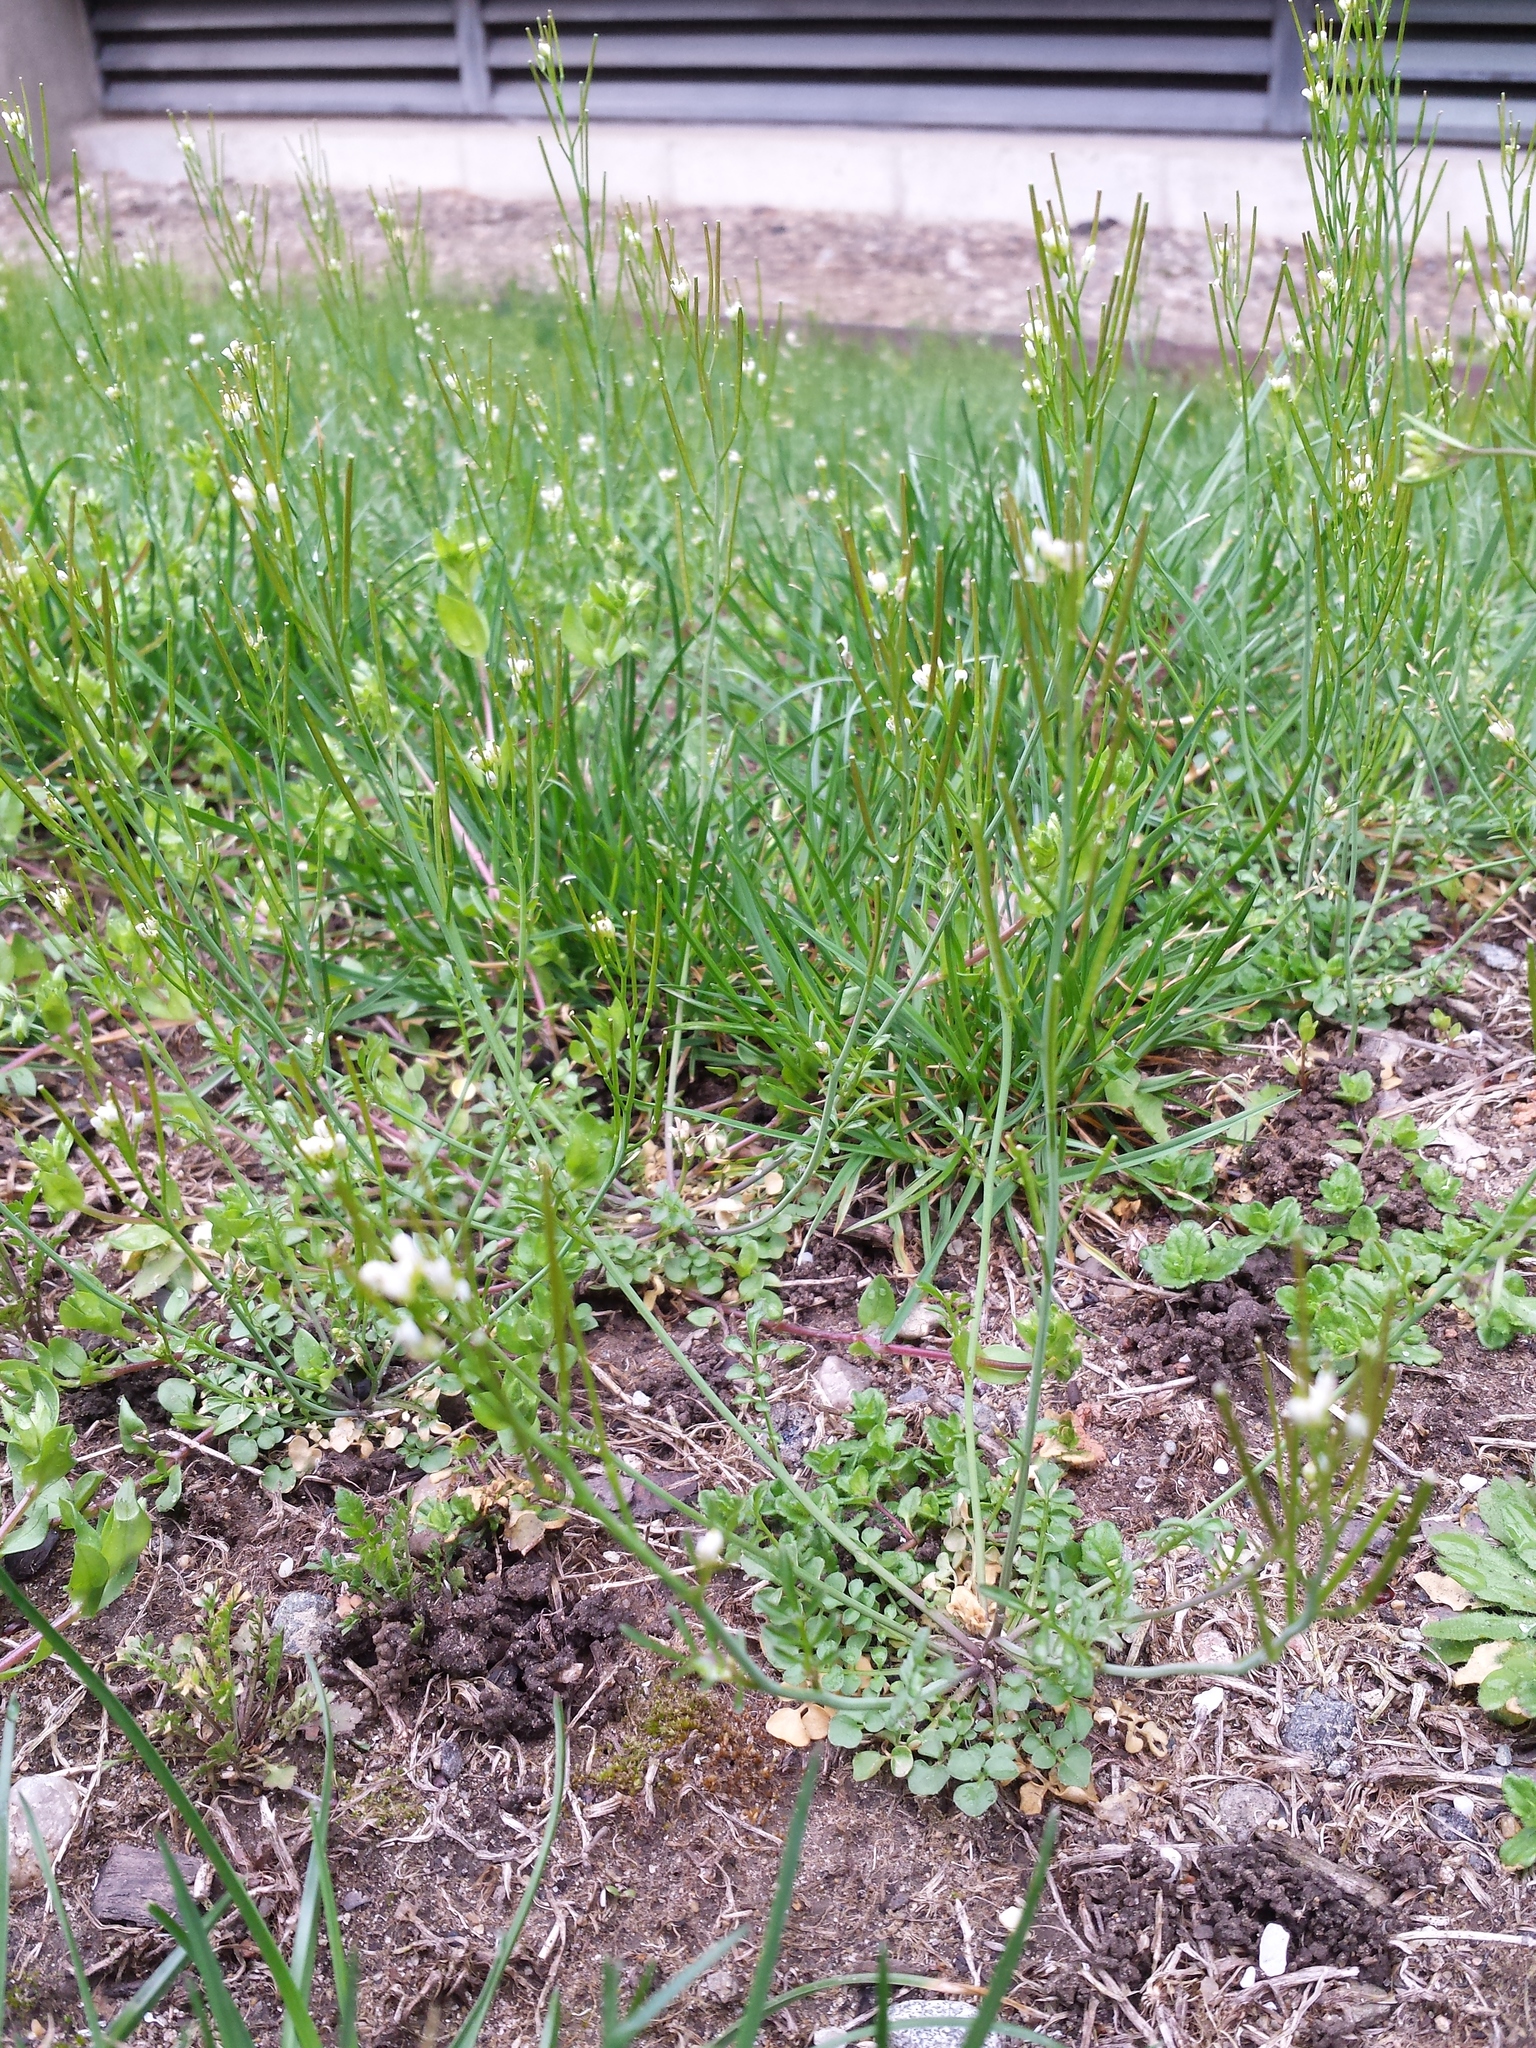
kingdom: Plantae
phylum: Tracheophyta
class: Magnoliopsida
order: Brassicales
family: Brassicaceae
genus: Cardamine
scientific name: Cardamine hirsuta
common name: Hairy bittercress
